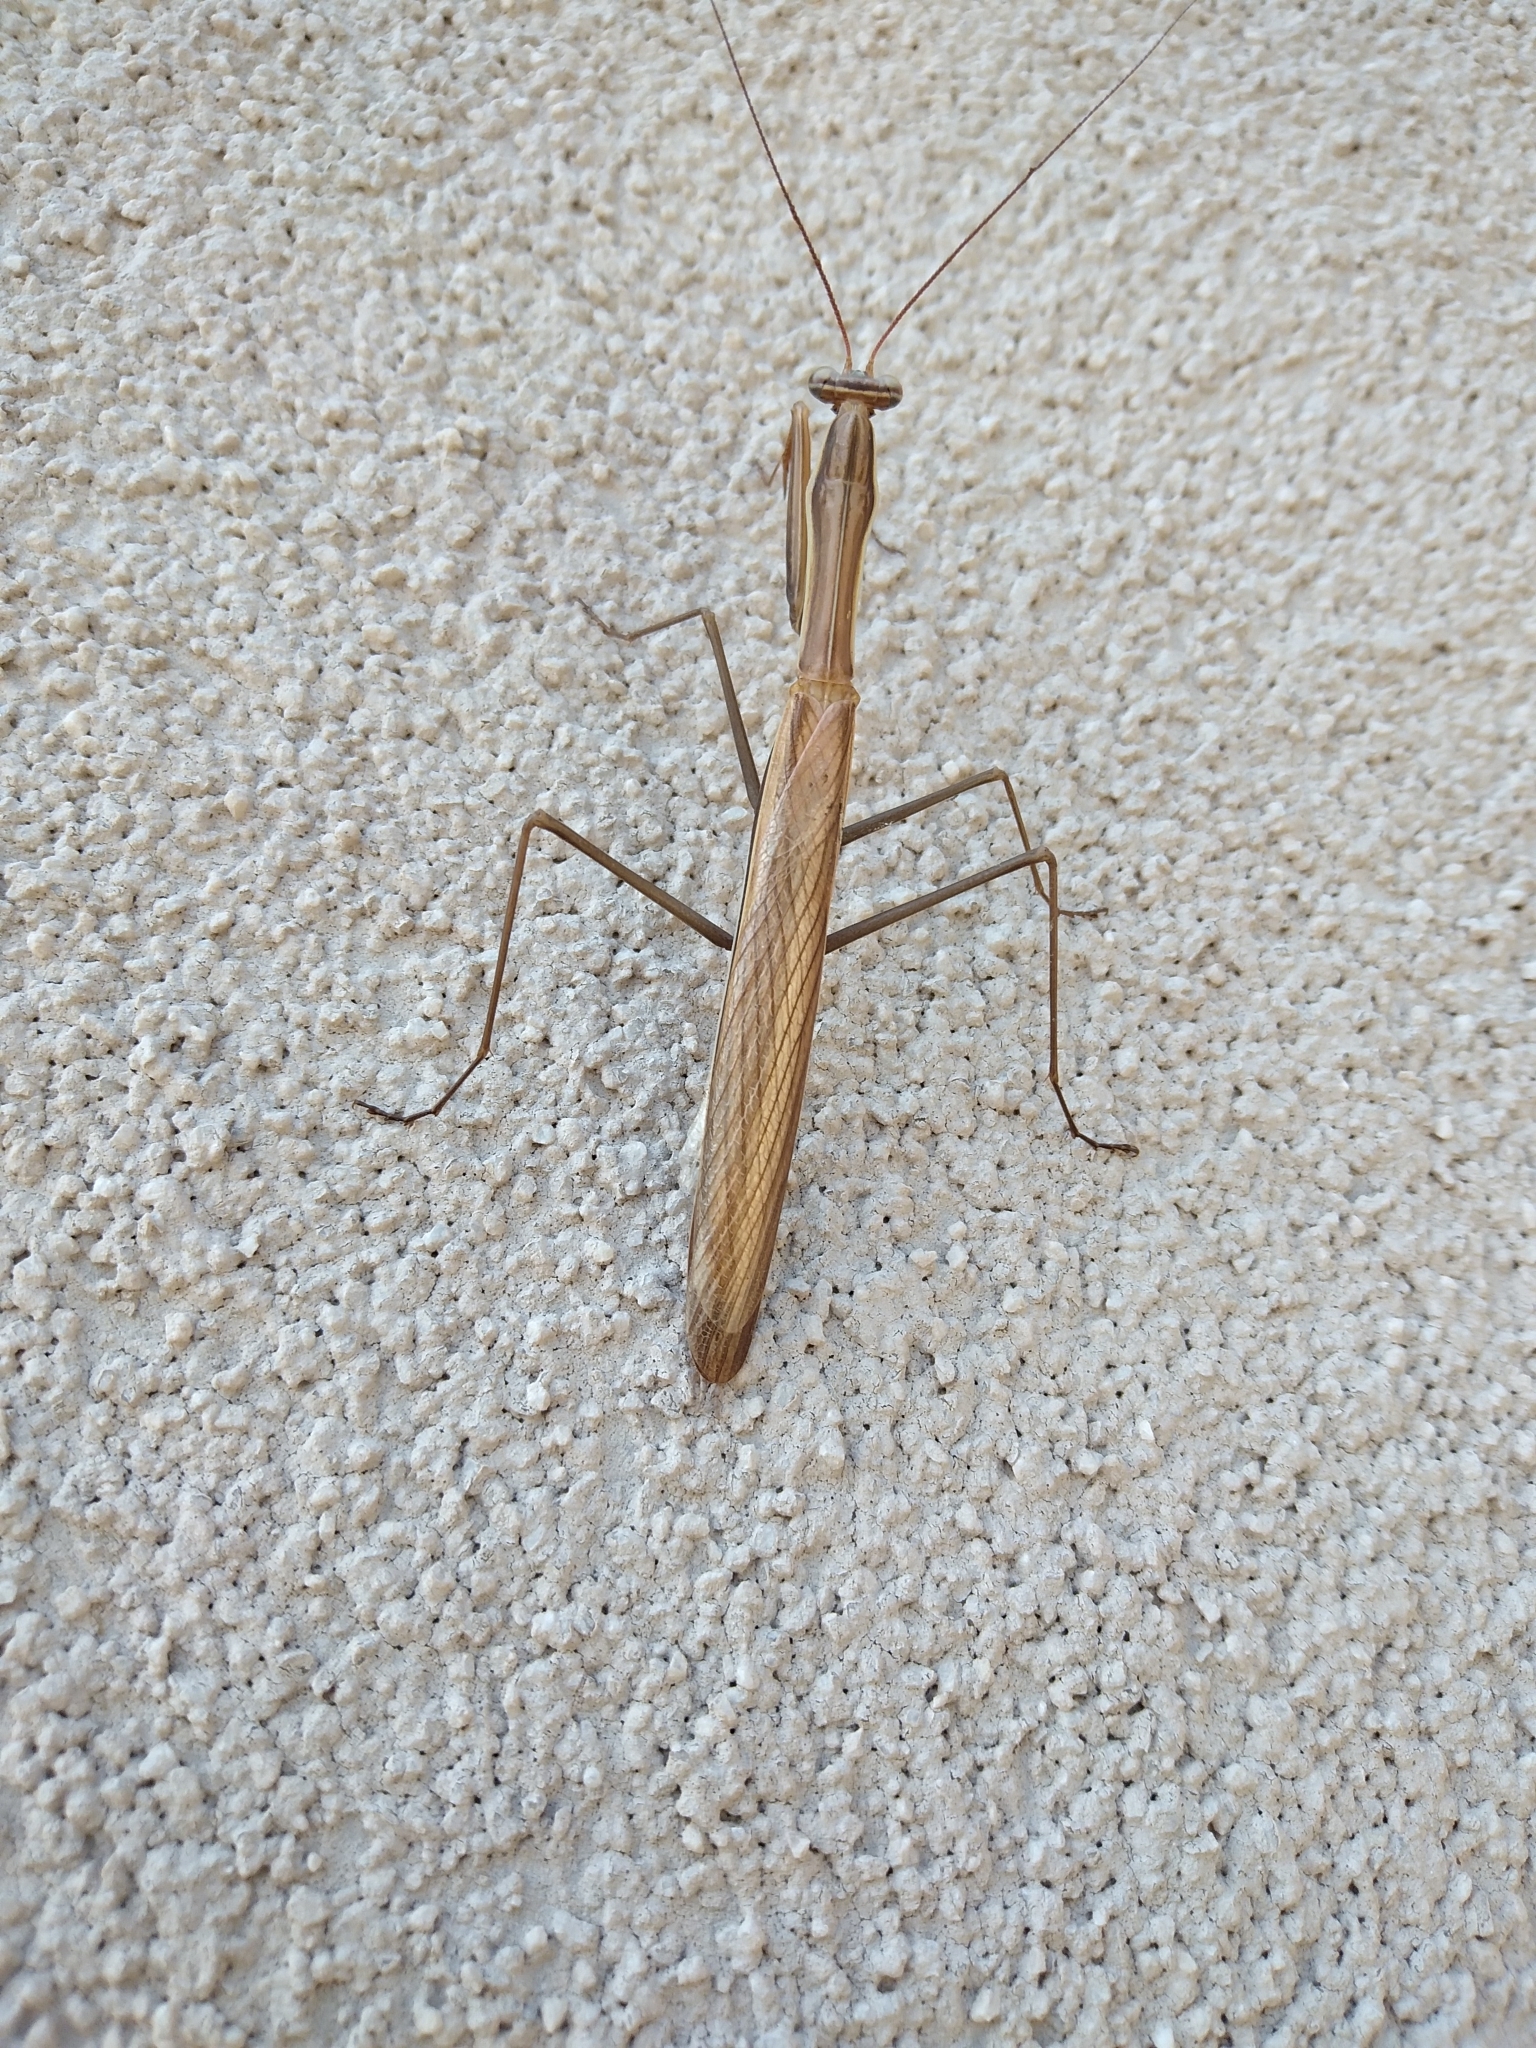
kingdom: Animalia
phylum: Arthropoda
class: Insecta
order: Mantodea
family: Mantidae
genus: Mantis
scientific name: Mantis religiosa
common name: Praying mantis
